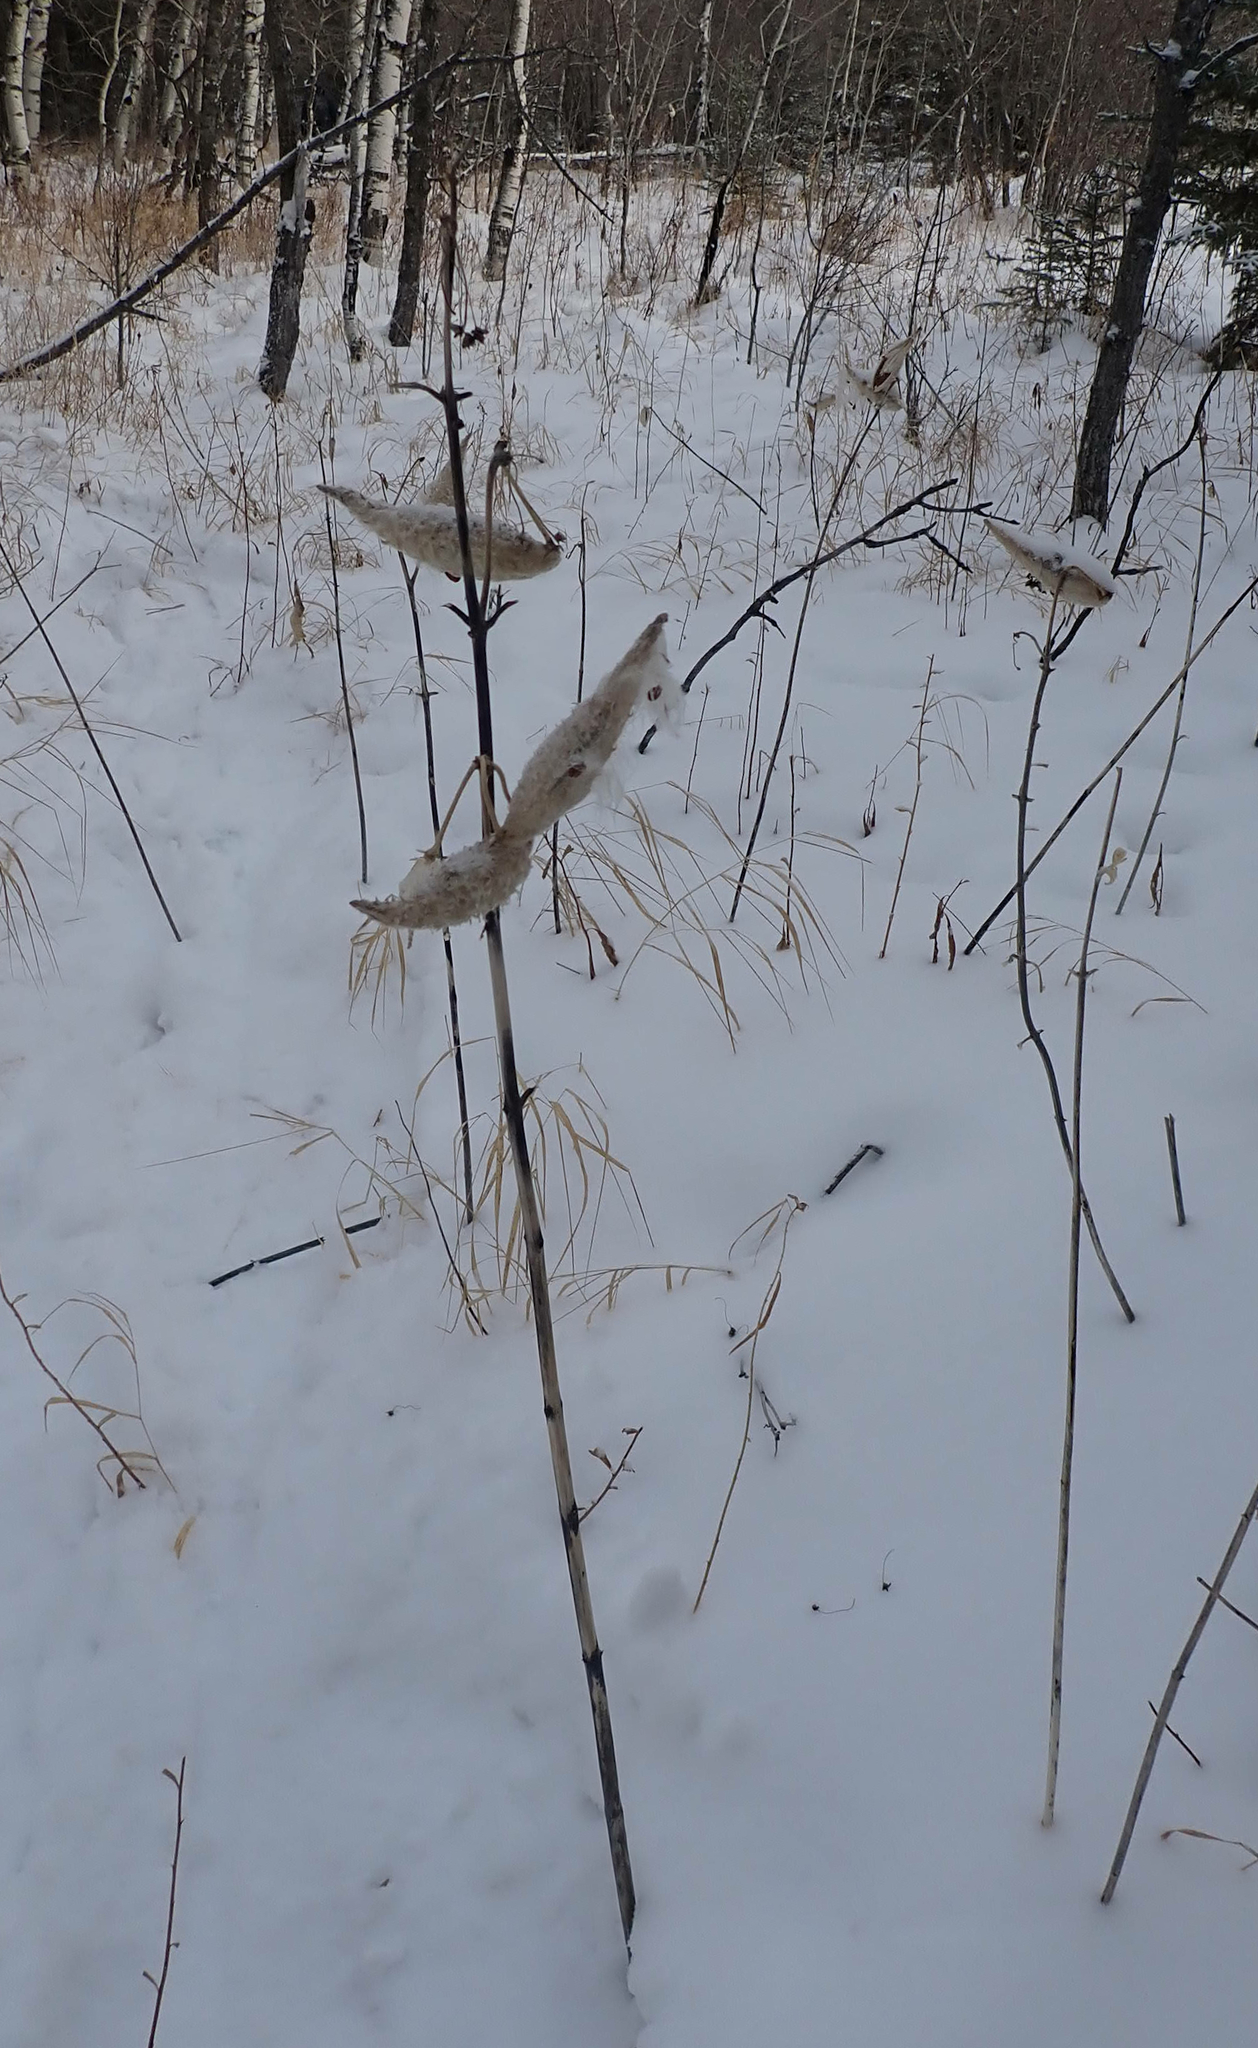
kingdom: Plantae
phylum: Tracheophyta
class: Magnoliopsida
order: Gentianales
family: Apocynaceae
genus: Asclepias
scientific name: Asclepias syriaca
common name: Common milkweed
